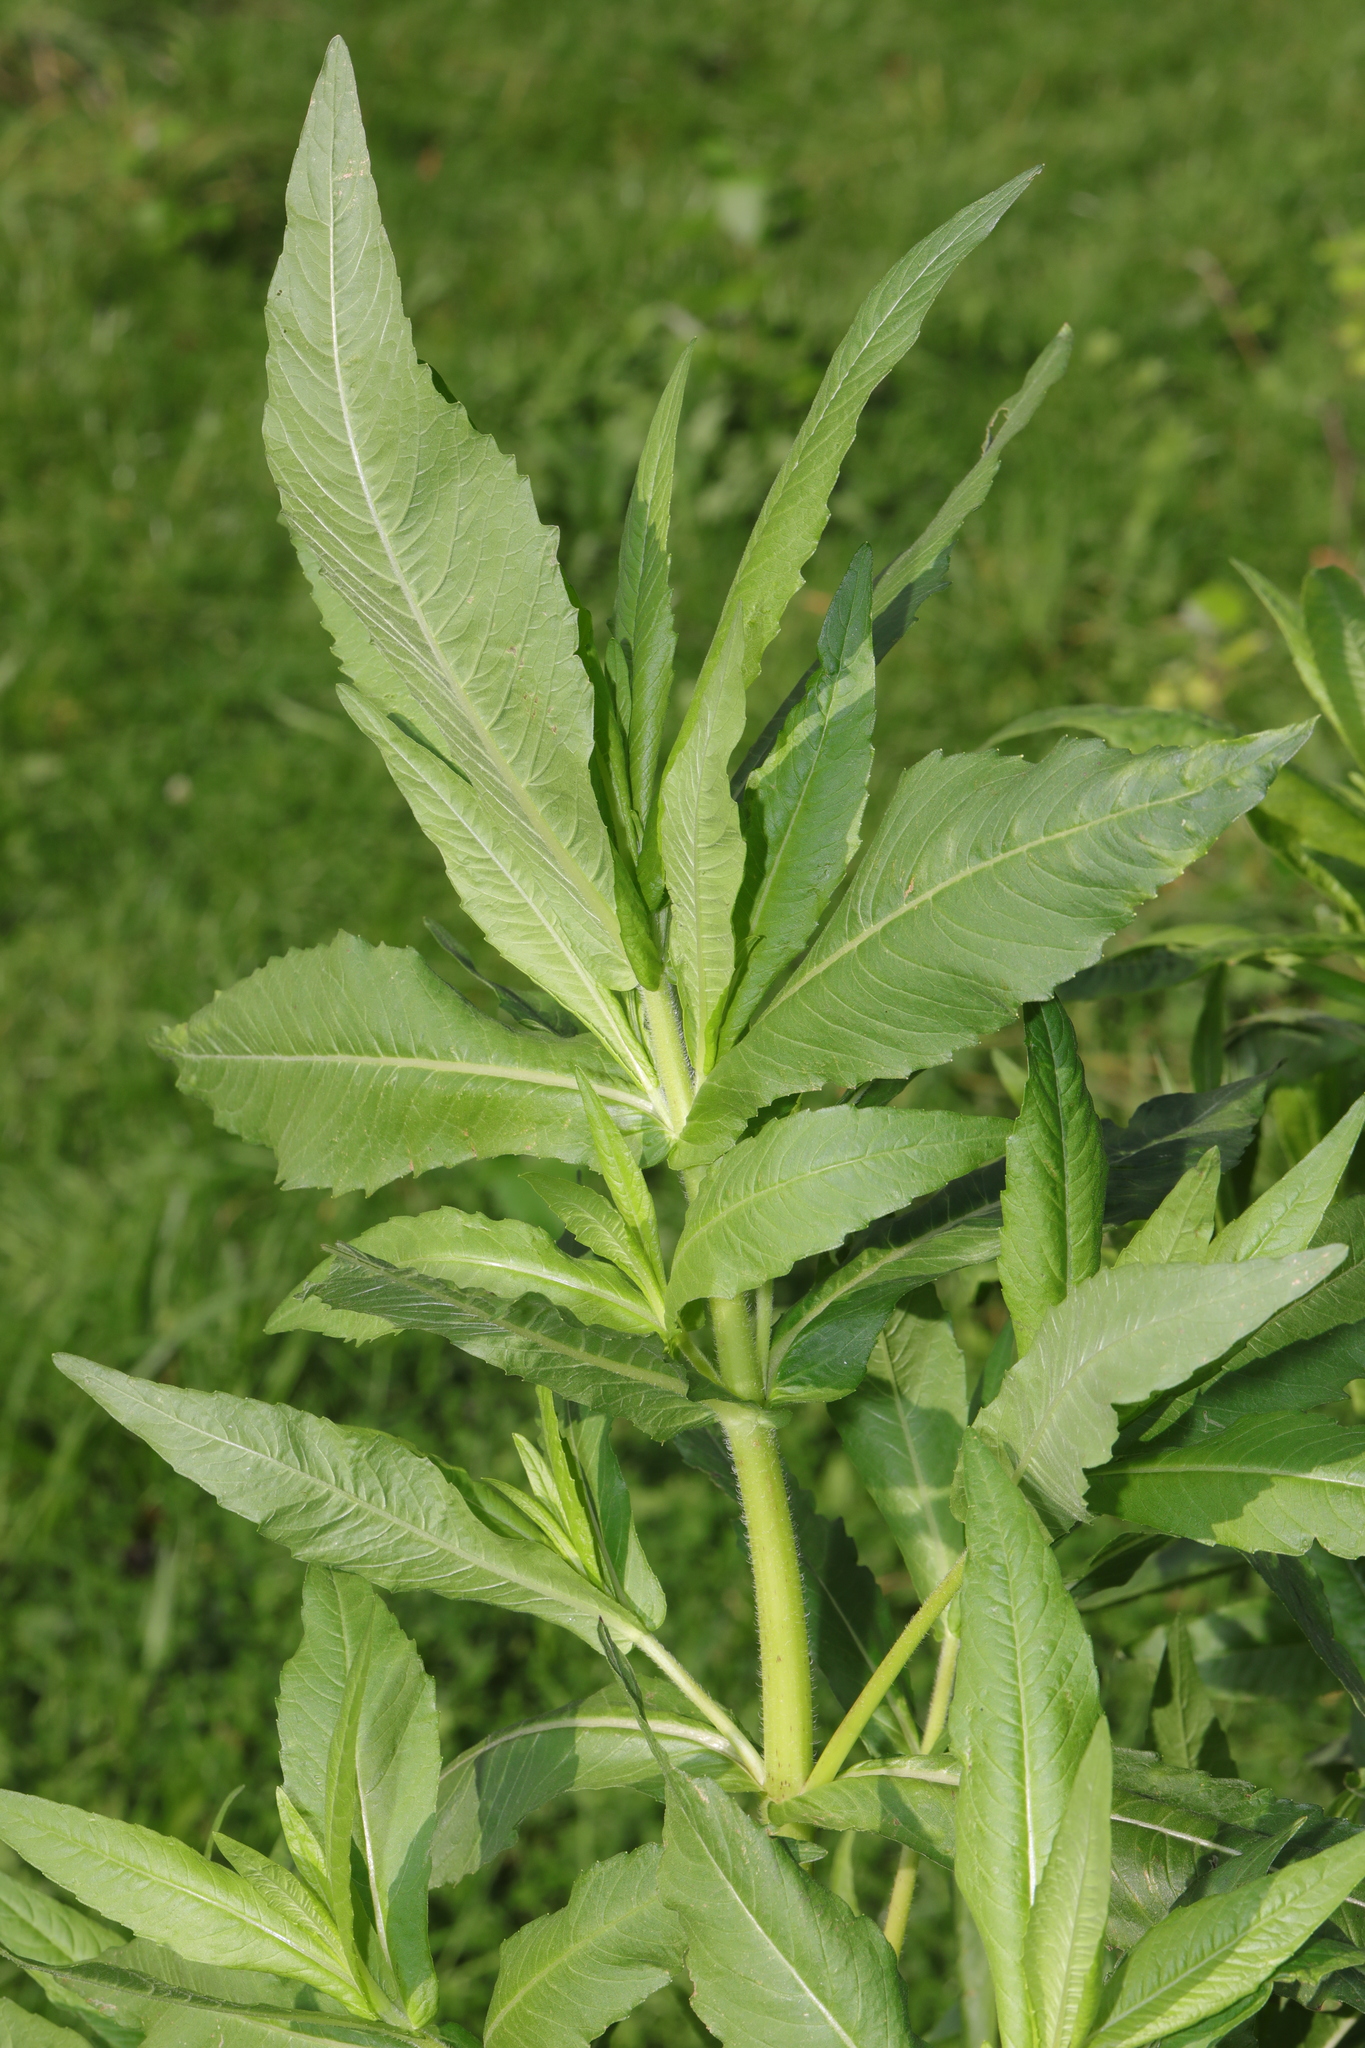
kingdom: Plantae
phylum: Tracheophyta
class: Magnoliopsida
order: Asterales
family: Asteraceae
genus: Guizotia
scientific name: Guizotia abyssinica
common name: Niger
